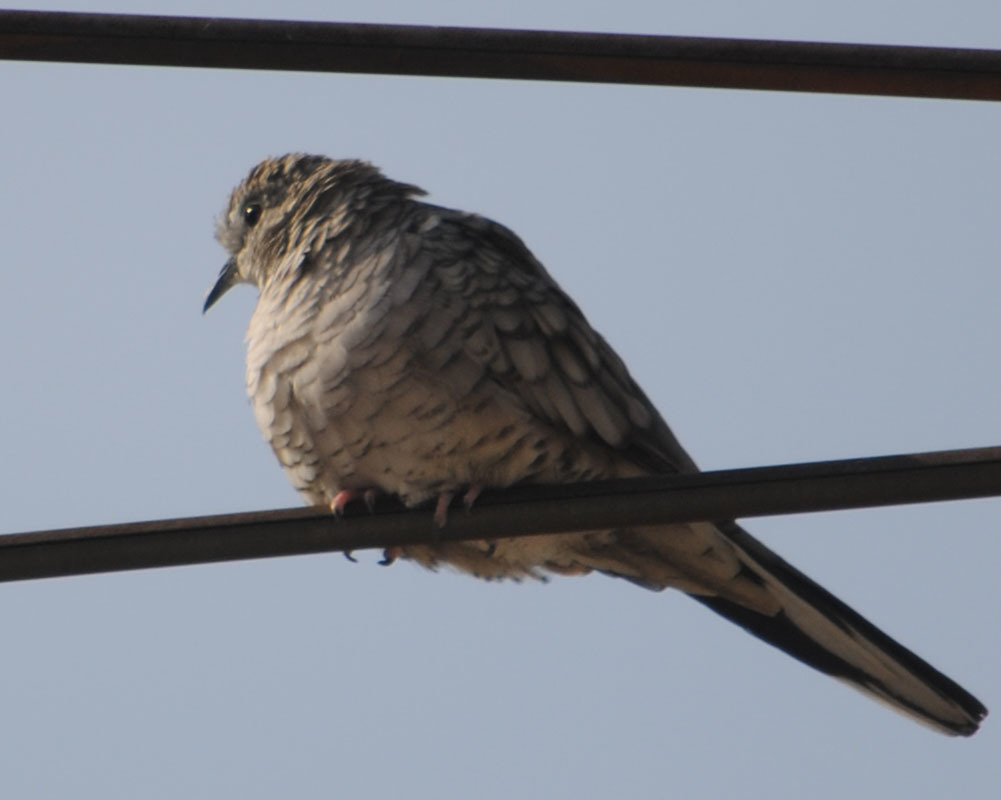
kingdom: Animalia
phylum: Chordata
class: Aves
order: Columbiformes
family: Columbidae
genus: Columbina
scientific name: Columbina inca
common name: Inca dove
